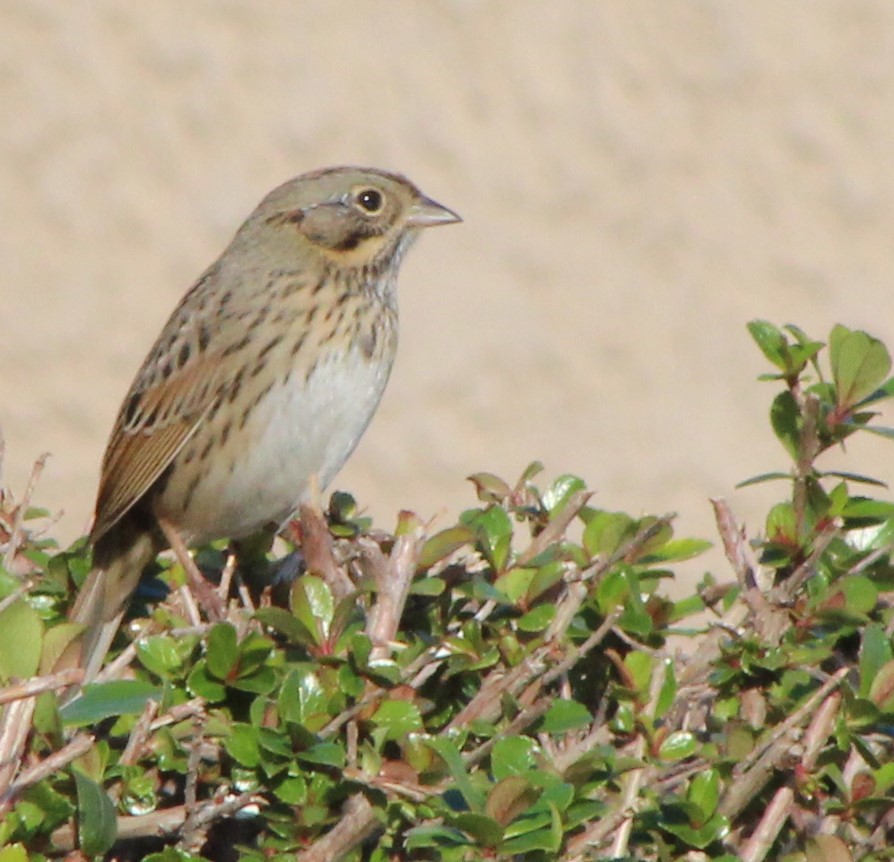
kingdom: Animalia
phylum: Chordata
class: Aves
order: Passeriformes
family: Passerellidae
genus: Melospiza
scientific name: Melospiza lincolnii
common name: Lincoln's sparrow
